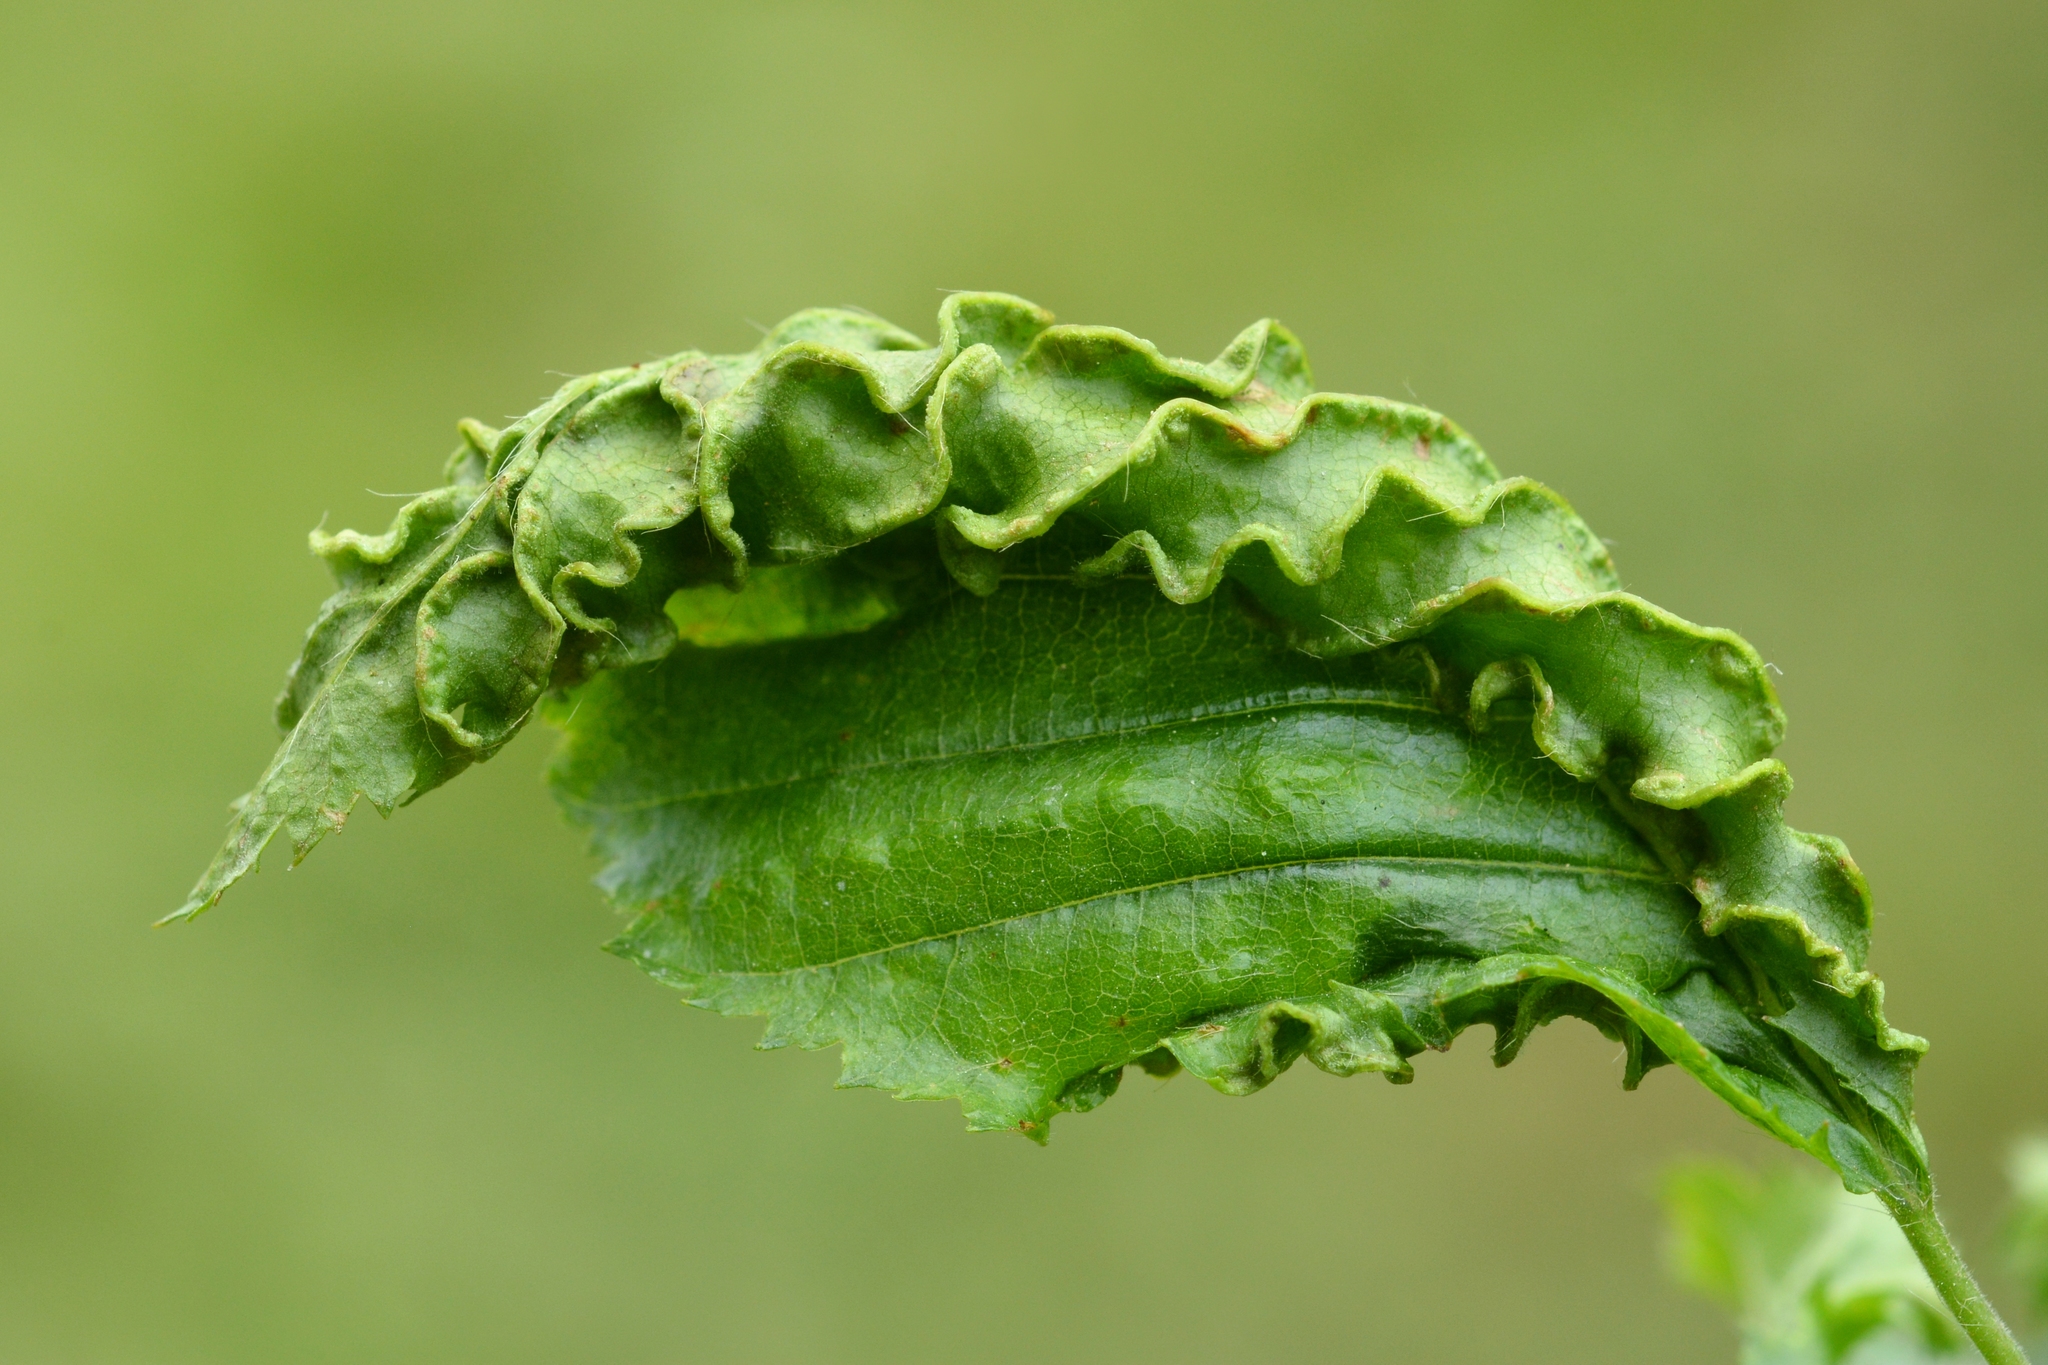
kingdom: Animalia
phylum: Arthropoda
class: Arachnida
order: Trombidiformes
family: Eriophyidae
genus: Aculops
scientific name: Aculops macrotrichus
